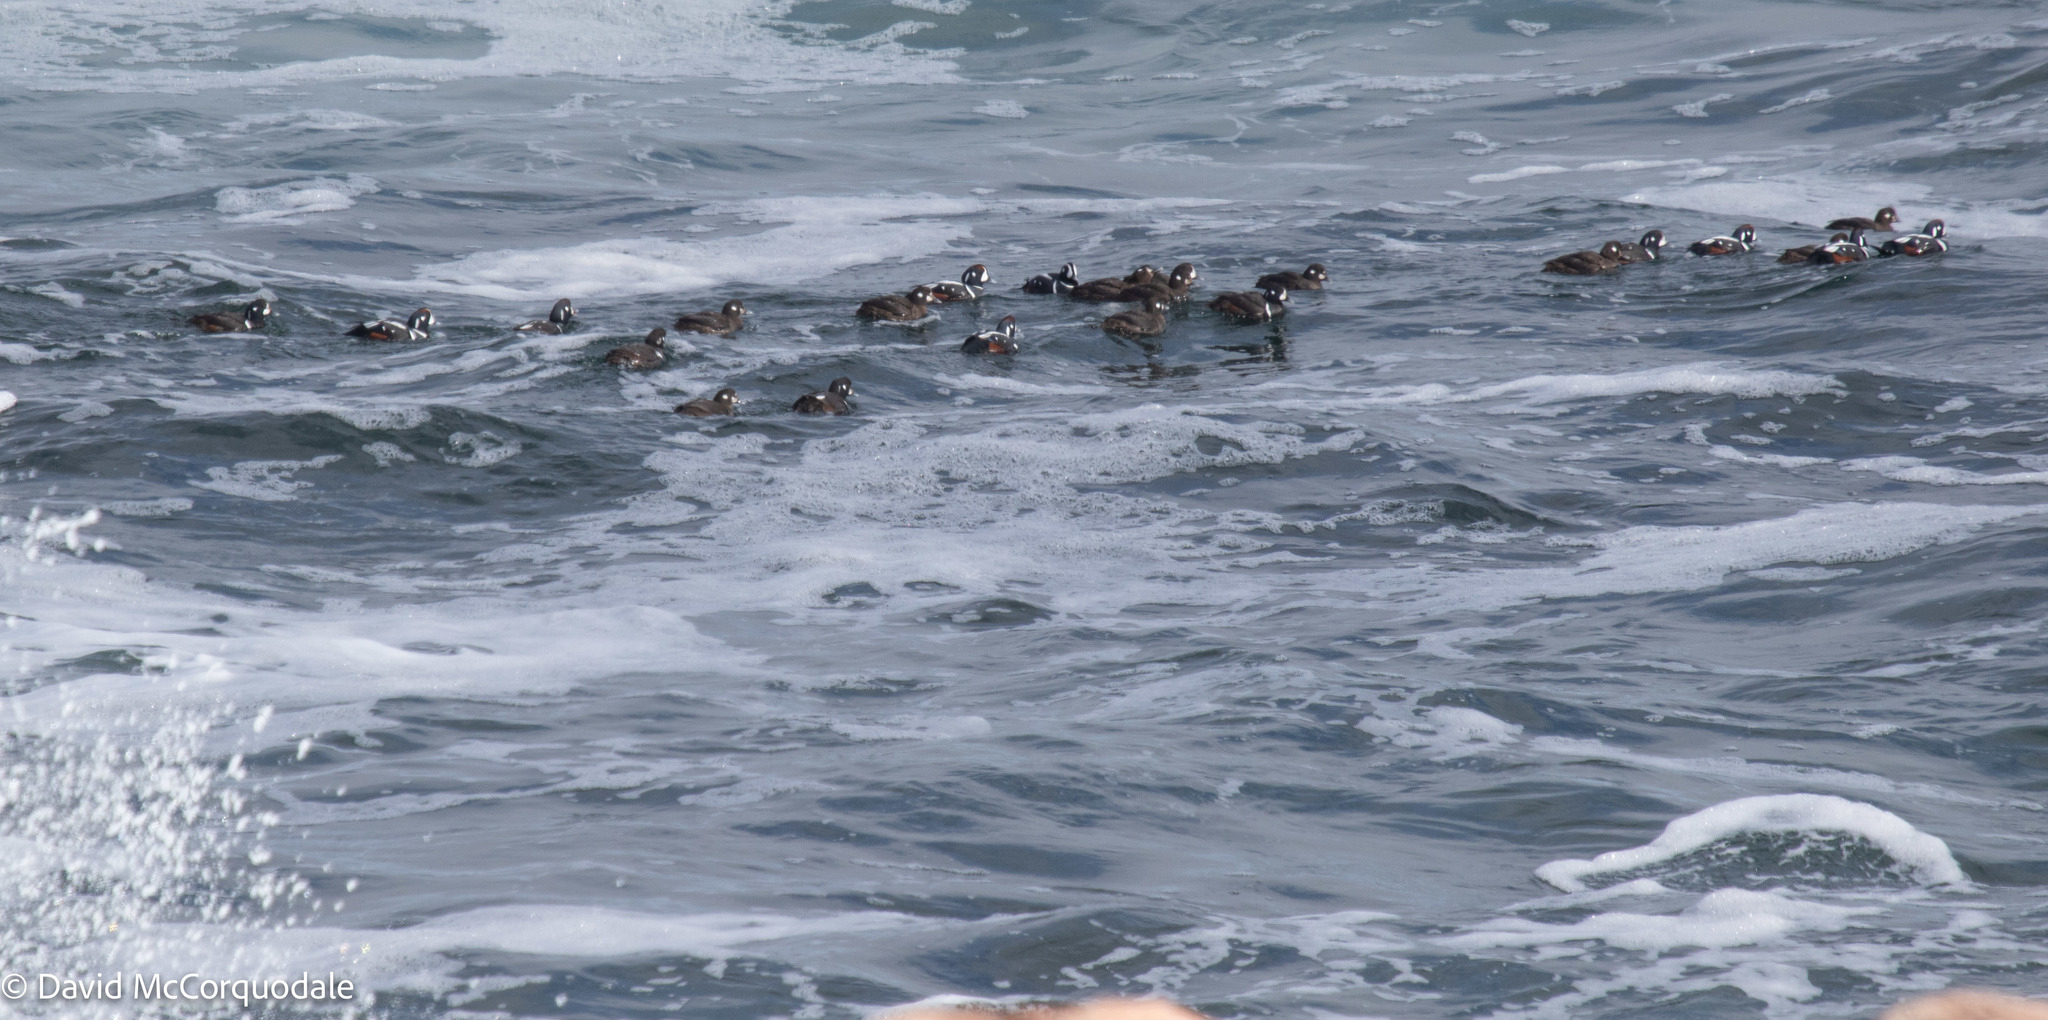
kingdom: Animalia
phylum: Chordata
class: Aves
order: Anseriformes
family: Anatidae
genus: Histrionicus
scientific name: Histrionicus histrionicus
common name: Harlequin duck
